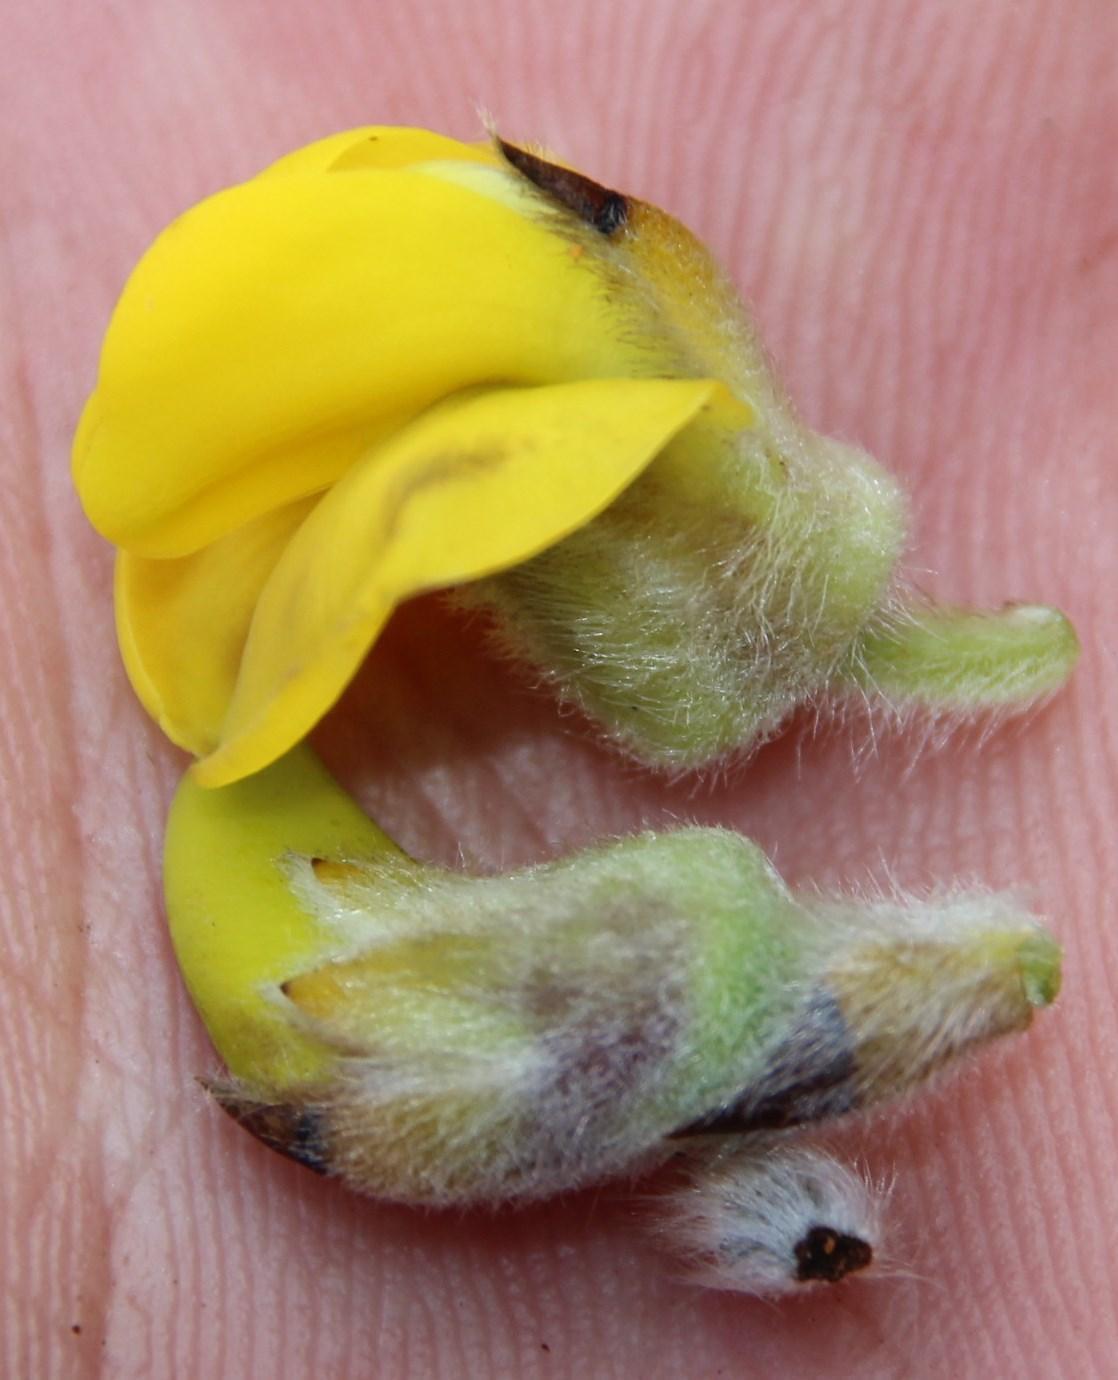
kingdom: Plantae
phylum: Tracheophyta
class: Magnoliopsida
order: Fabales
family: Fabaceae
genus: Liparia
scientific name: Liparia hirsuta
